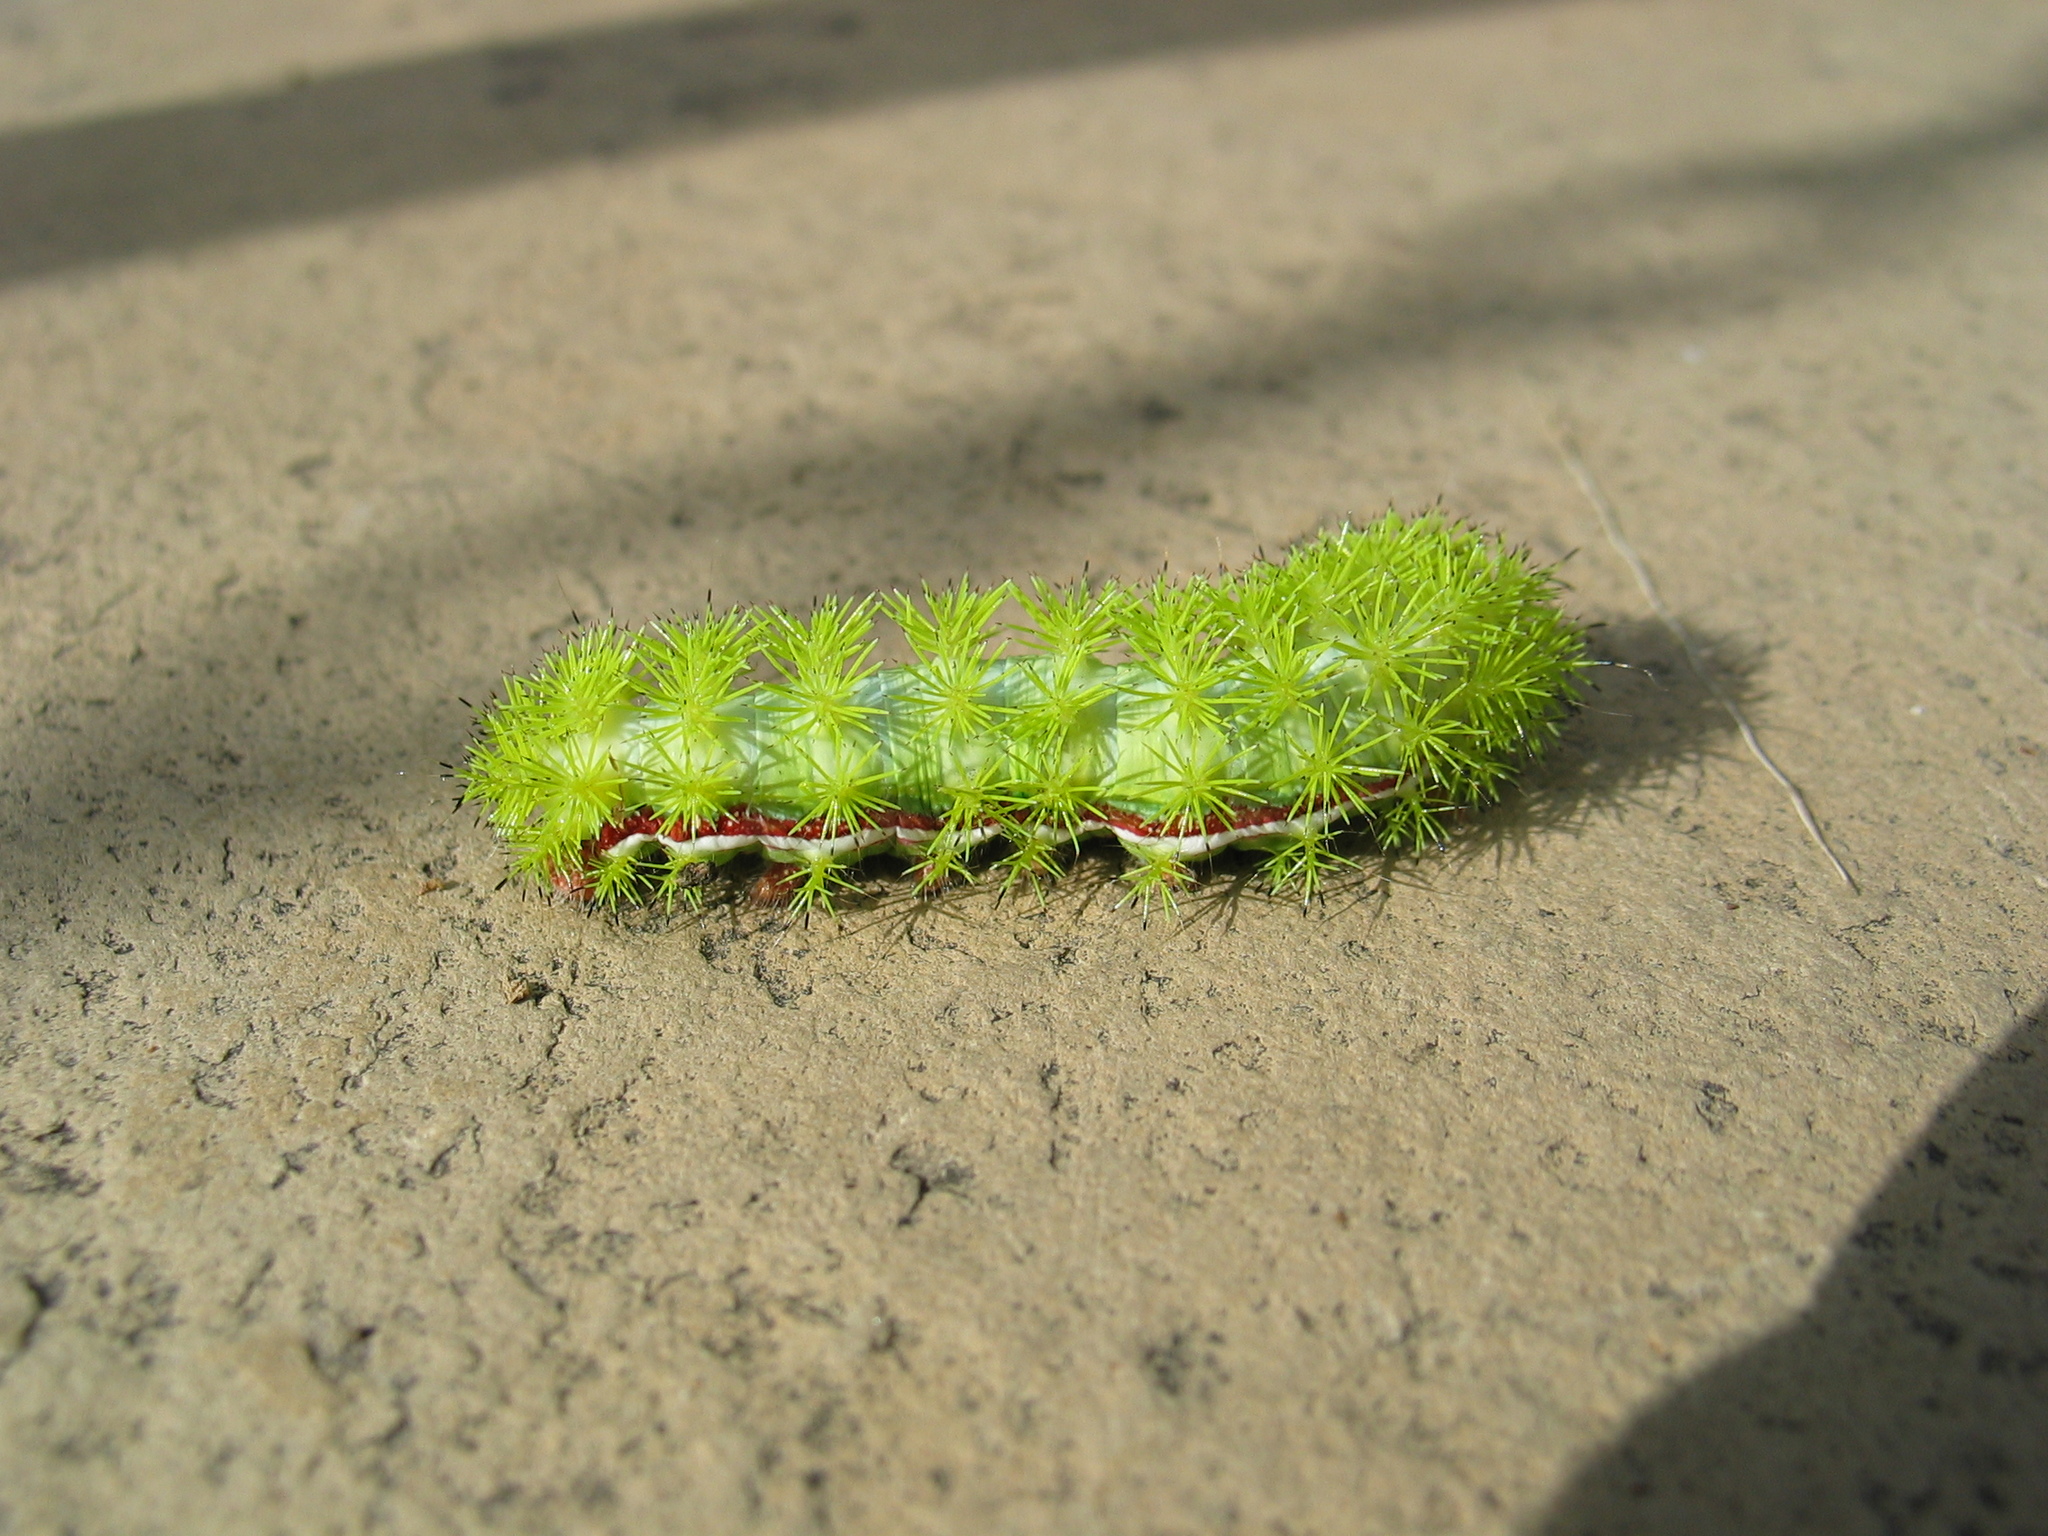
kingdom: Animalia
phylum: Arthropoda
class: Insecta
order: Lepidoptera
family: Saturniidae
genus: Automeris
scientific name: Automeris io
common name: Io moth
